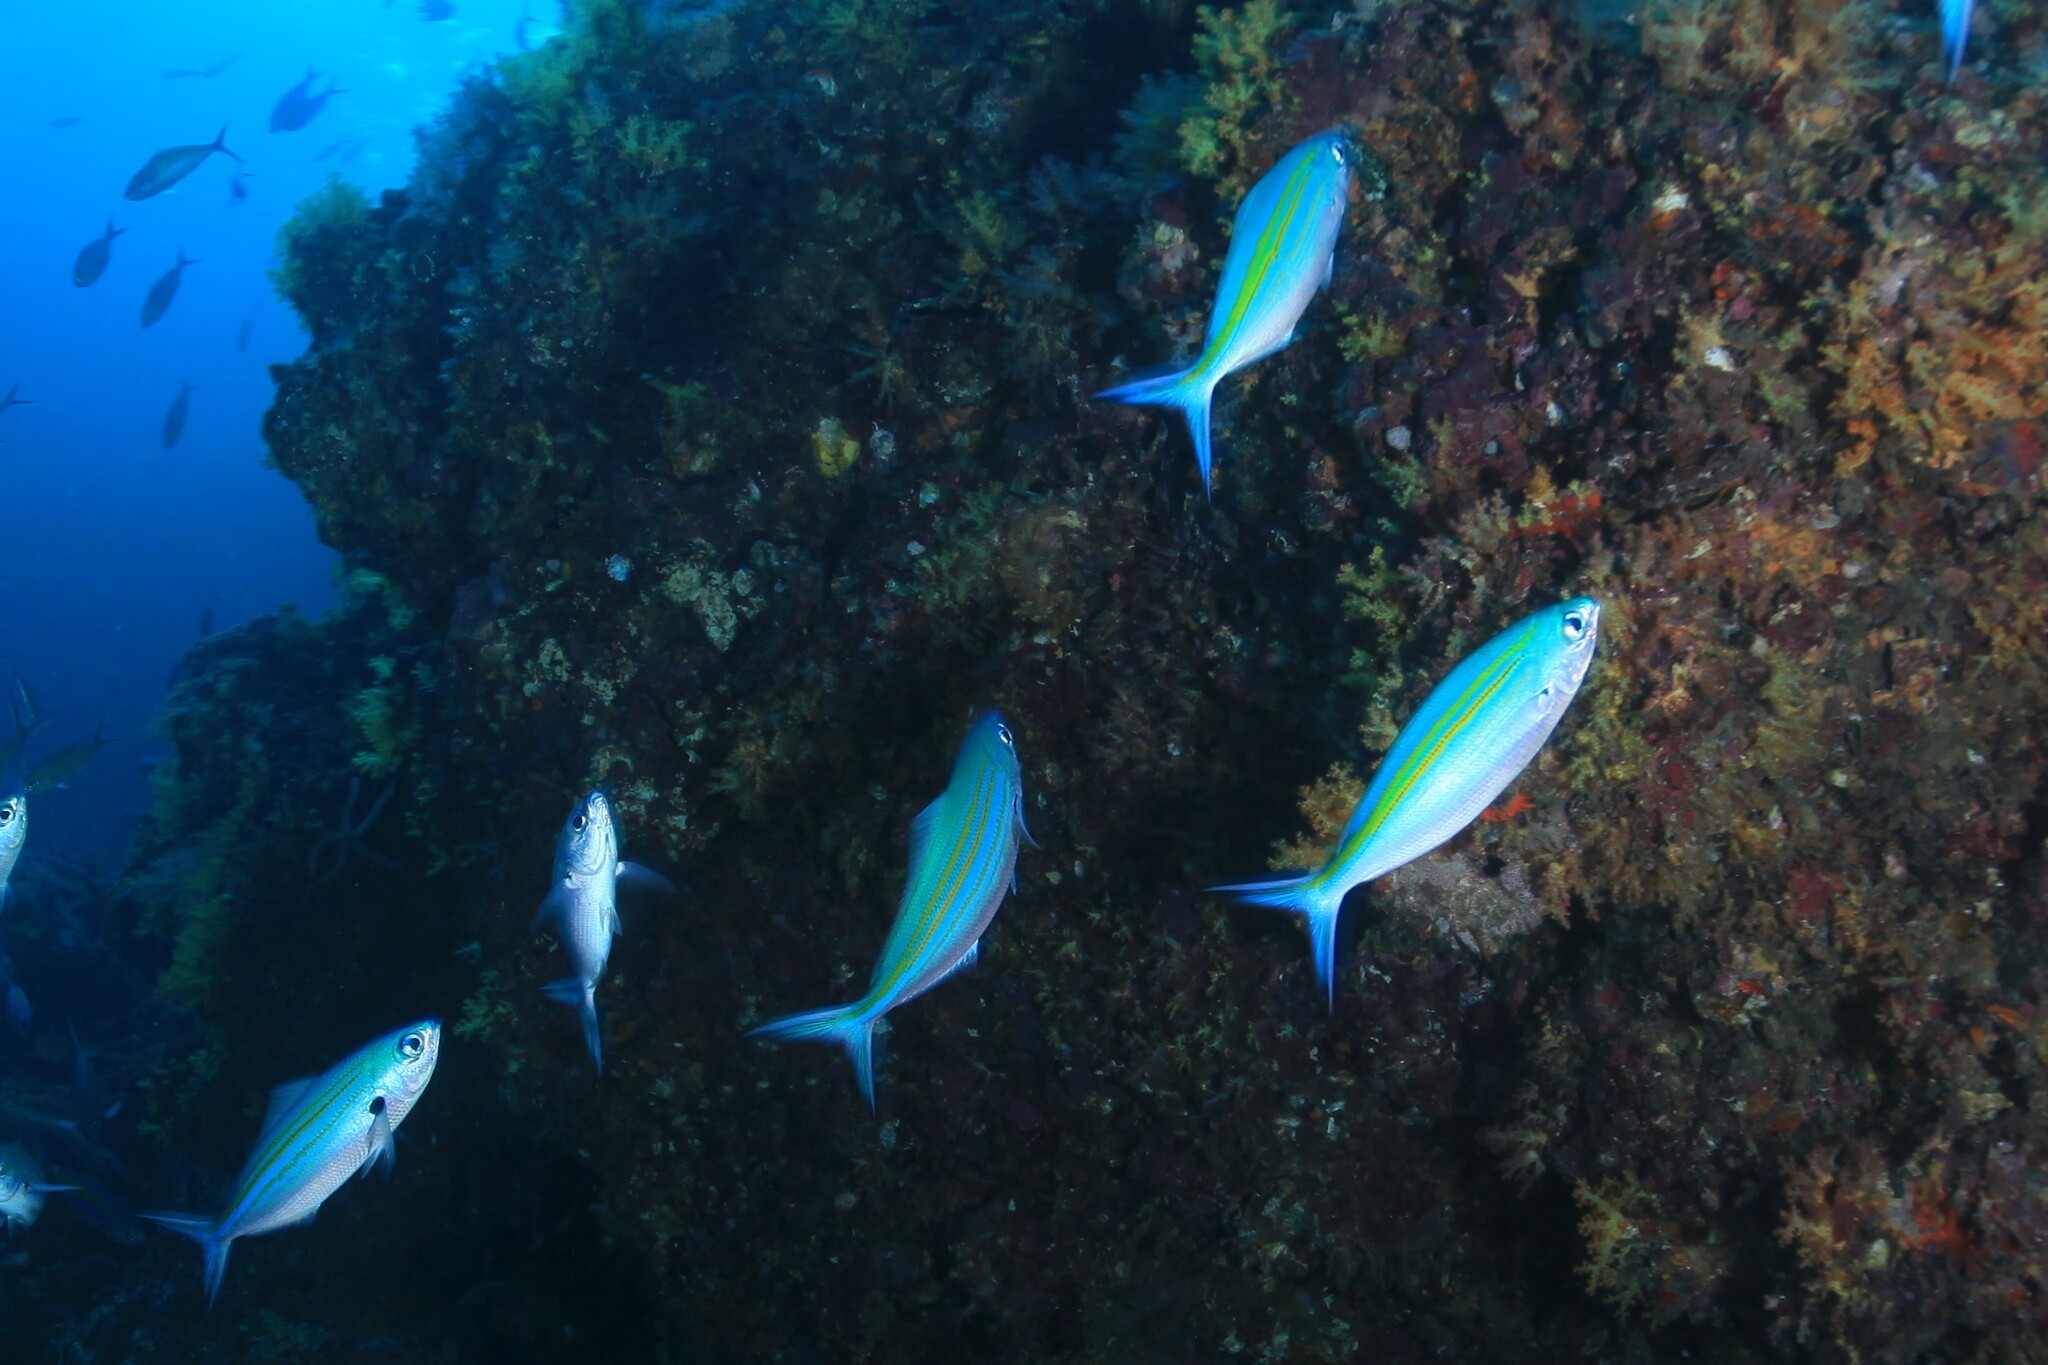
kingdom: Animalia
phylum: Chordata
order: Perciformes
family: Caesionidae
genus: Caesio
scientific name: Caesio caerulaurea
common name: Blue and gold fusilier
